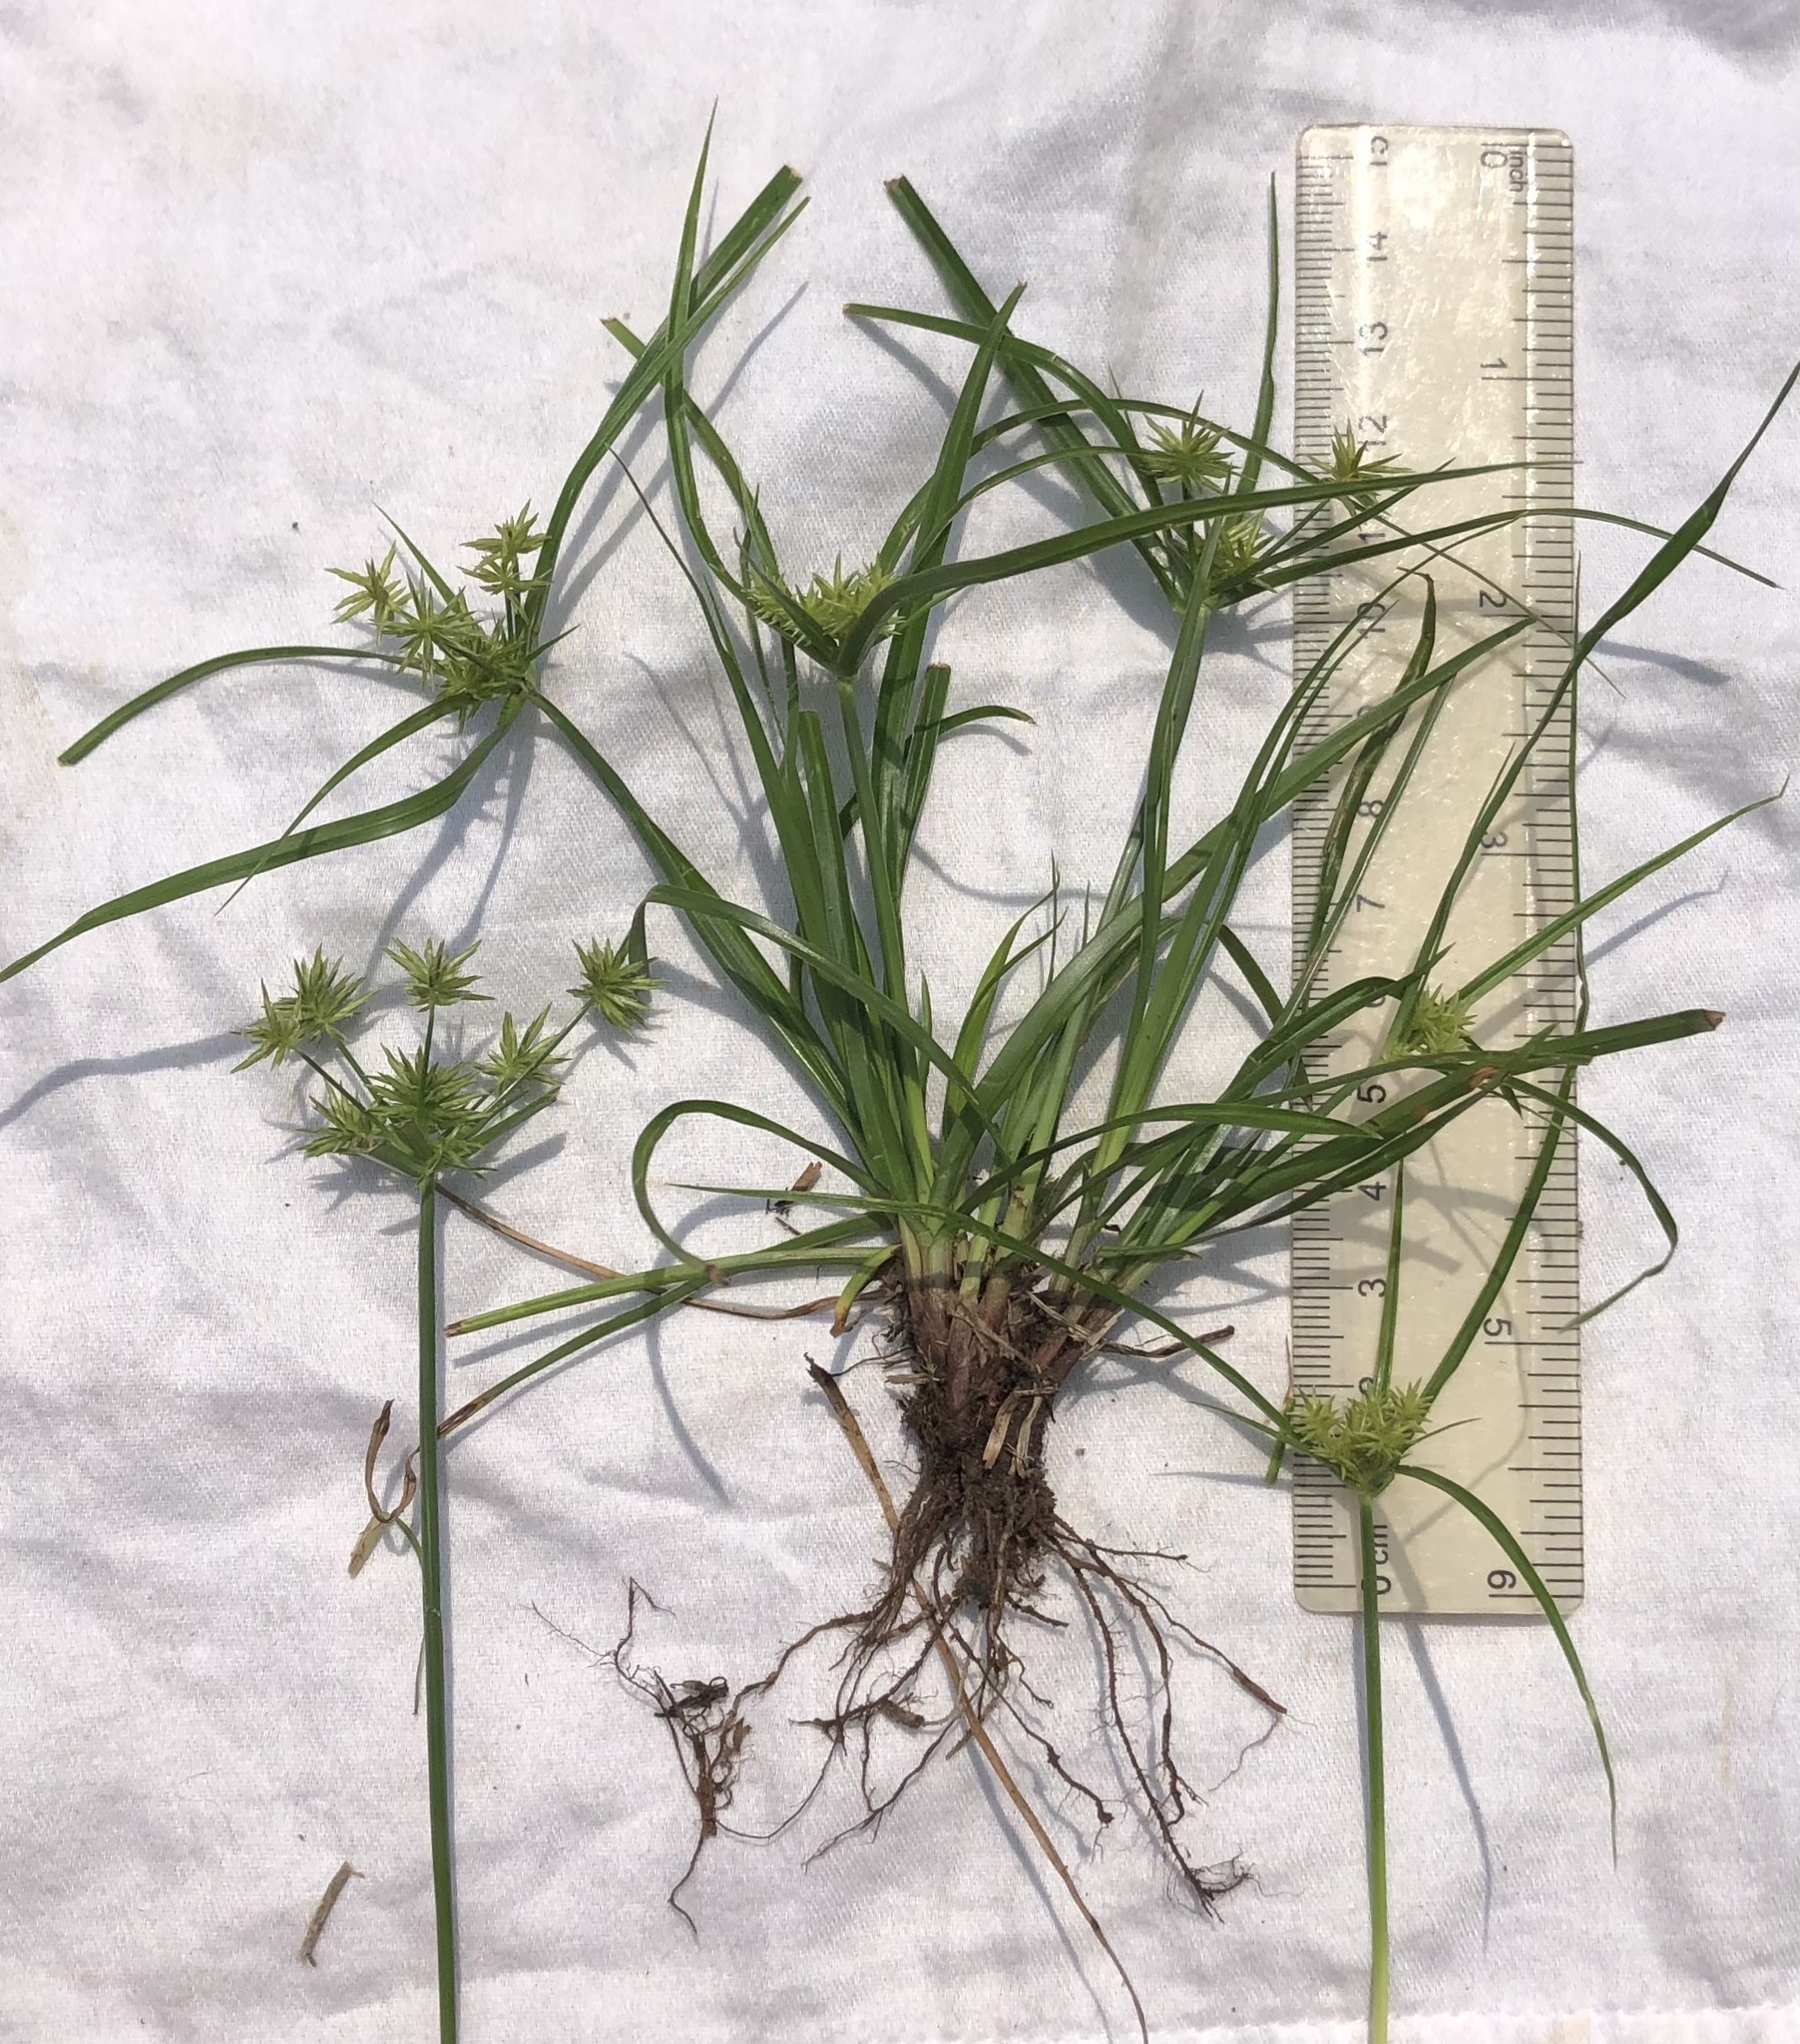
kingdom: Plantae
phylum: Tracheophyta
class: Liliopsida
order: Poales
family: Cyperaceae
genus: Cyperus
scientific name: Cyperus croceus
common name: Baldwin's flatsedge
